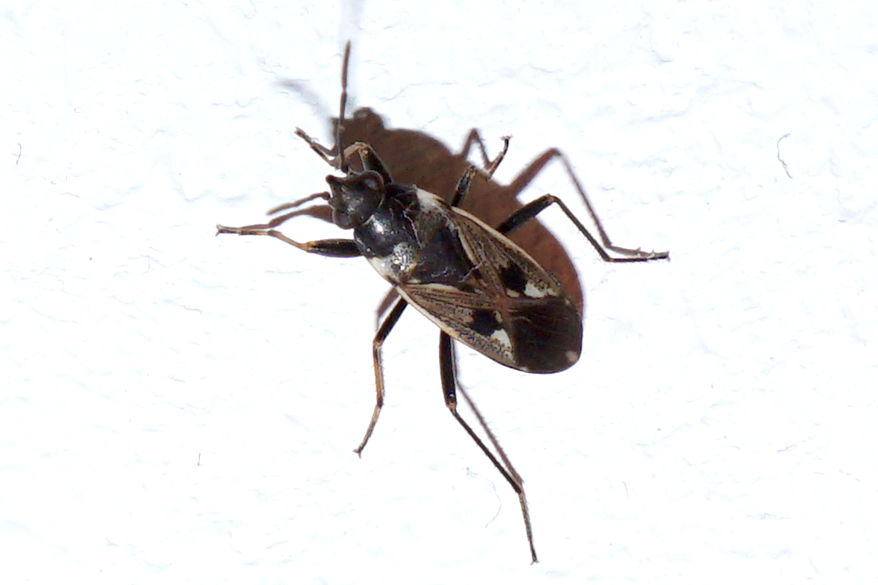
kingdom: Animalia
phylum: Arthropoda
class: Insecta
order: Hemiptera
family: Rhyparochromidae
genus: Rhyparochromus
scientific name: Rhyparochromus vulgaris
